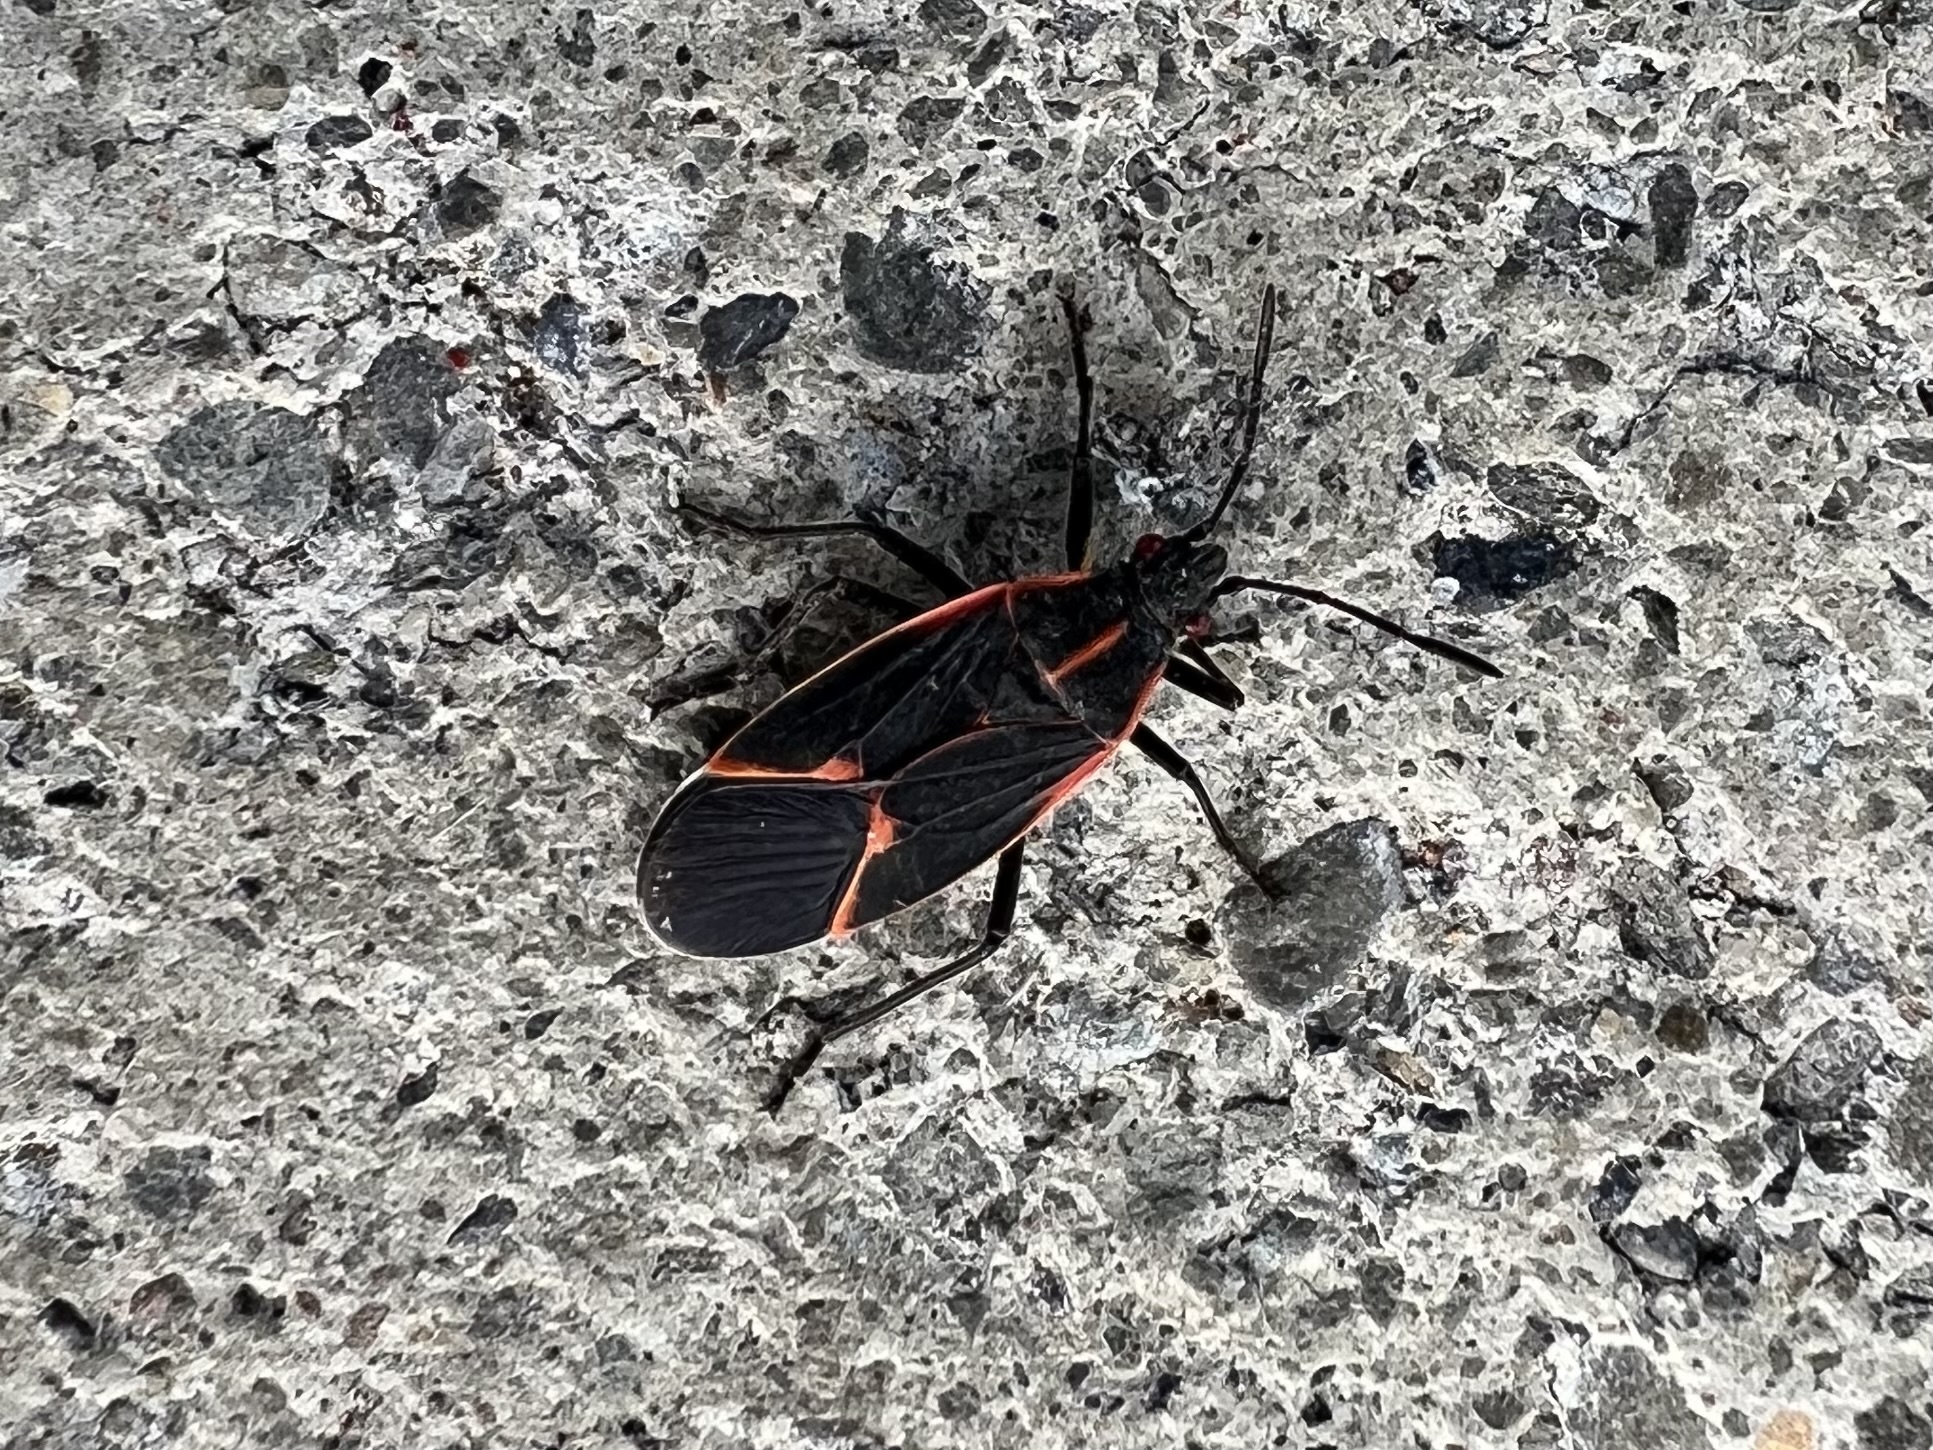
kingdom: Animalia
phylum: Arthropoda
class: Insecta
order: Hemiptera
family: Rhopalidae
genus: Boisea
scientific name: Boisea trivittata
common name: Boxelder bug
